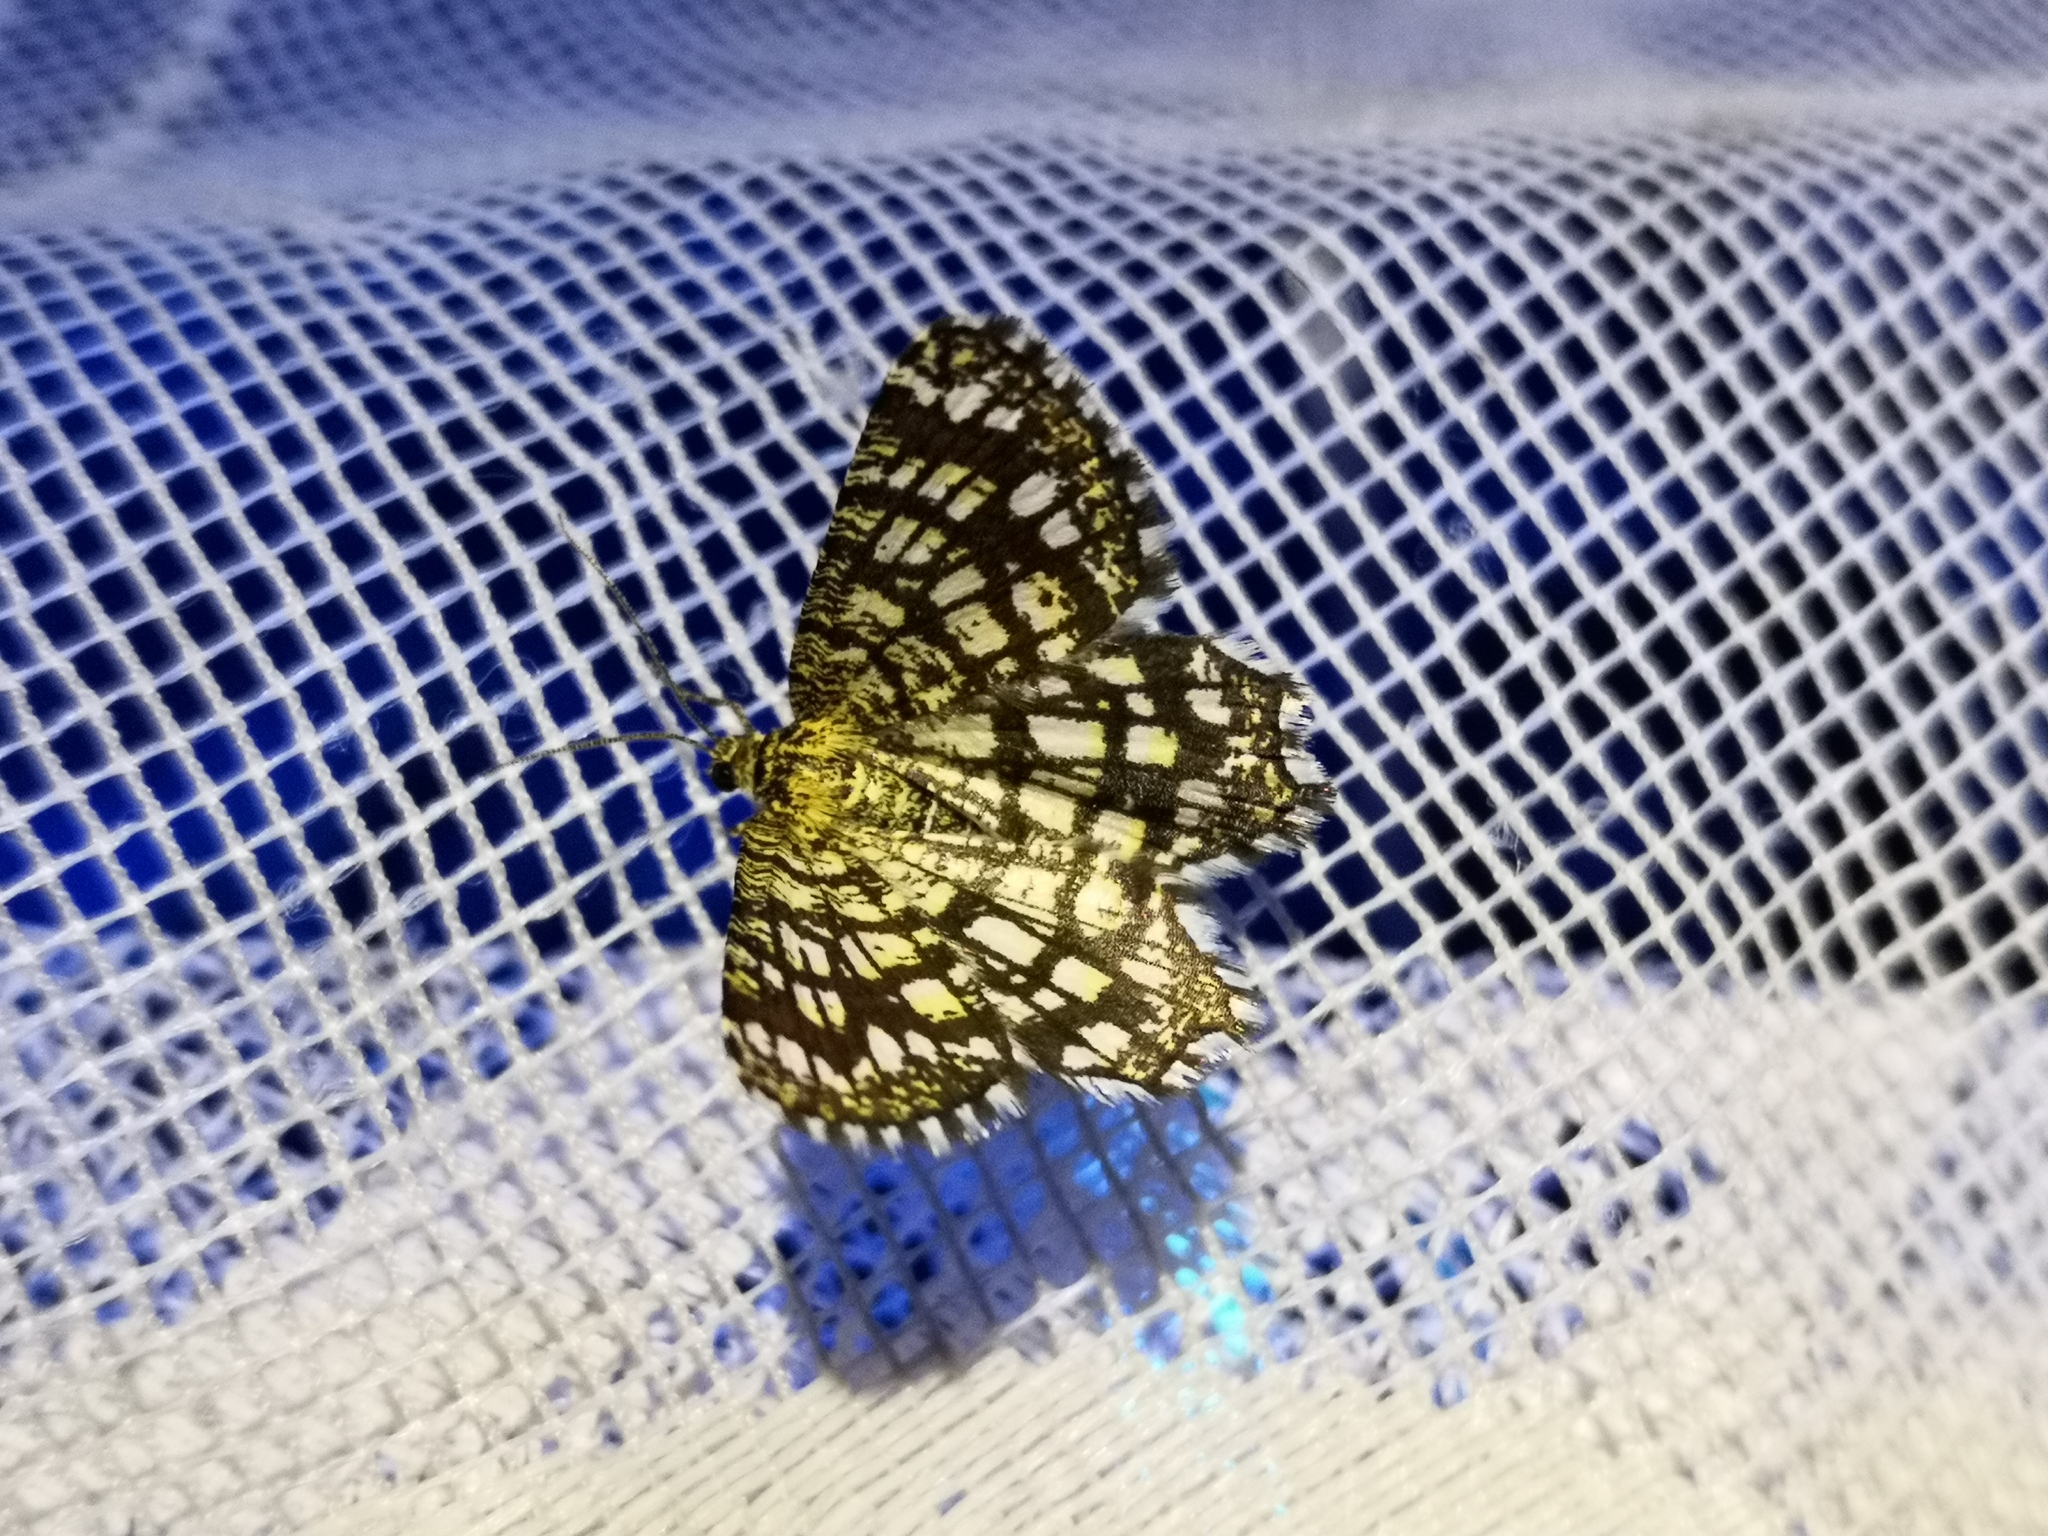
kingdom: Animalia
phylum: Arthropoda
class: Insecta
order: Lepidoptera
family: Geometridae
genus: Chiasmia
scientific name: Chiasmia clathrata
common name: Latticed heath
